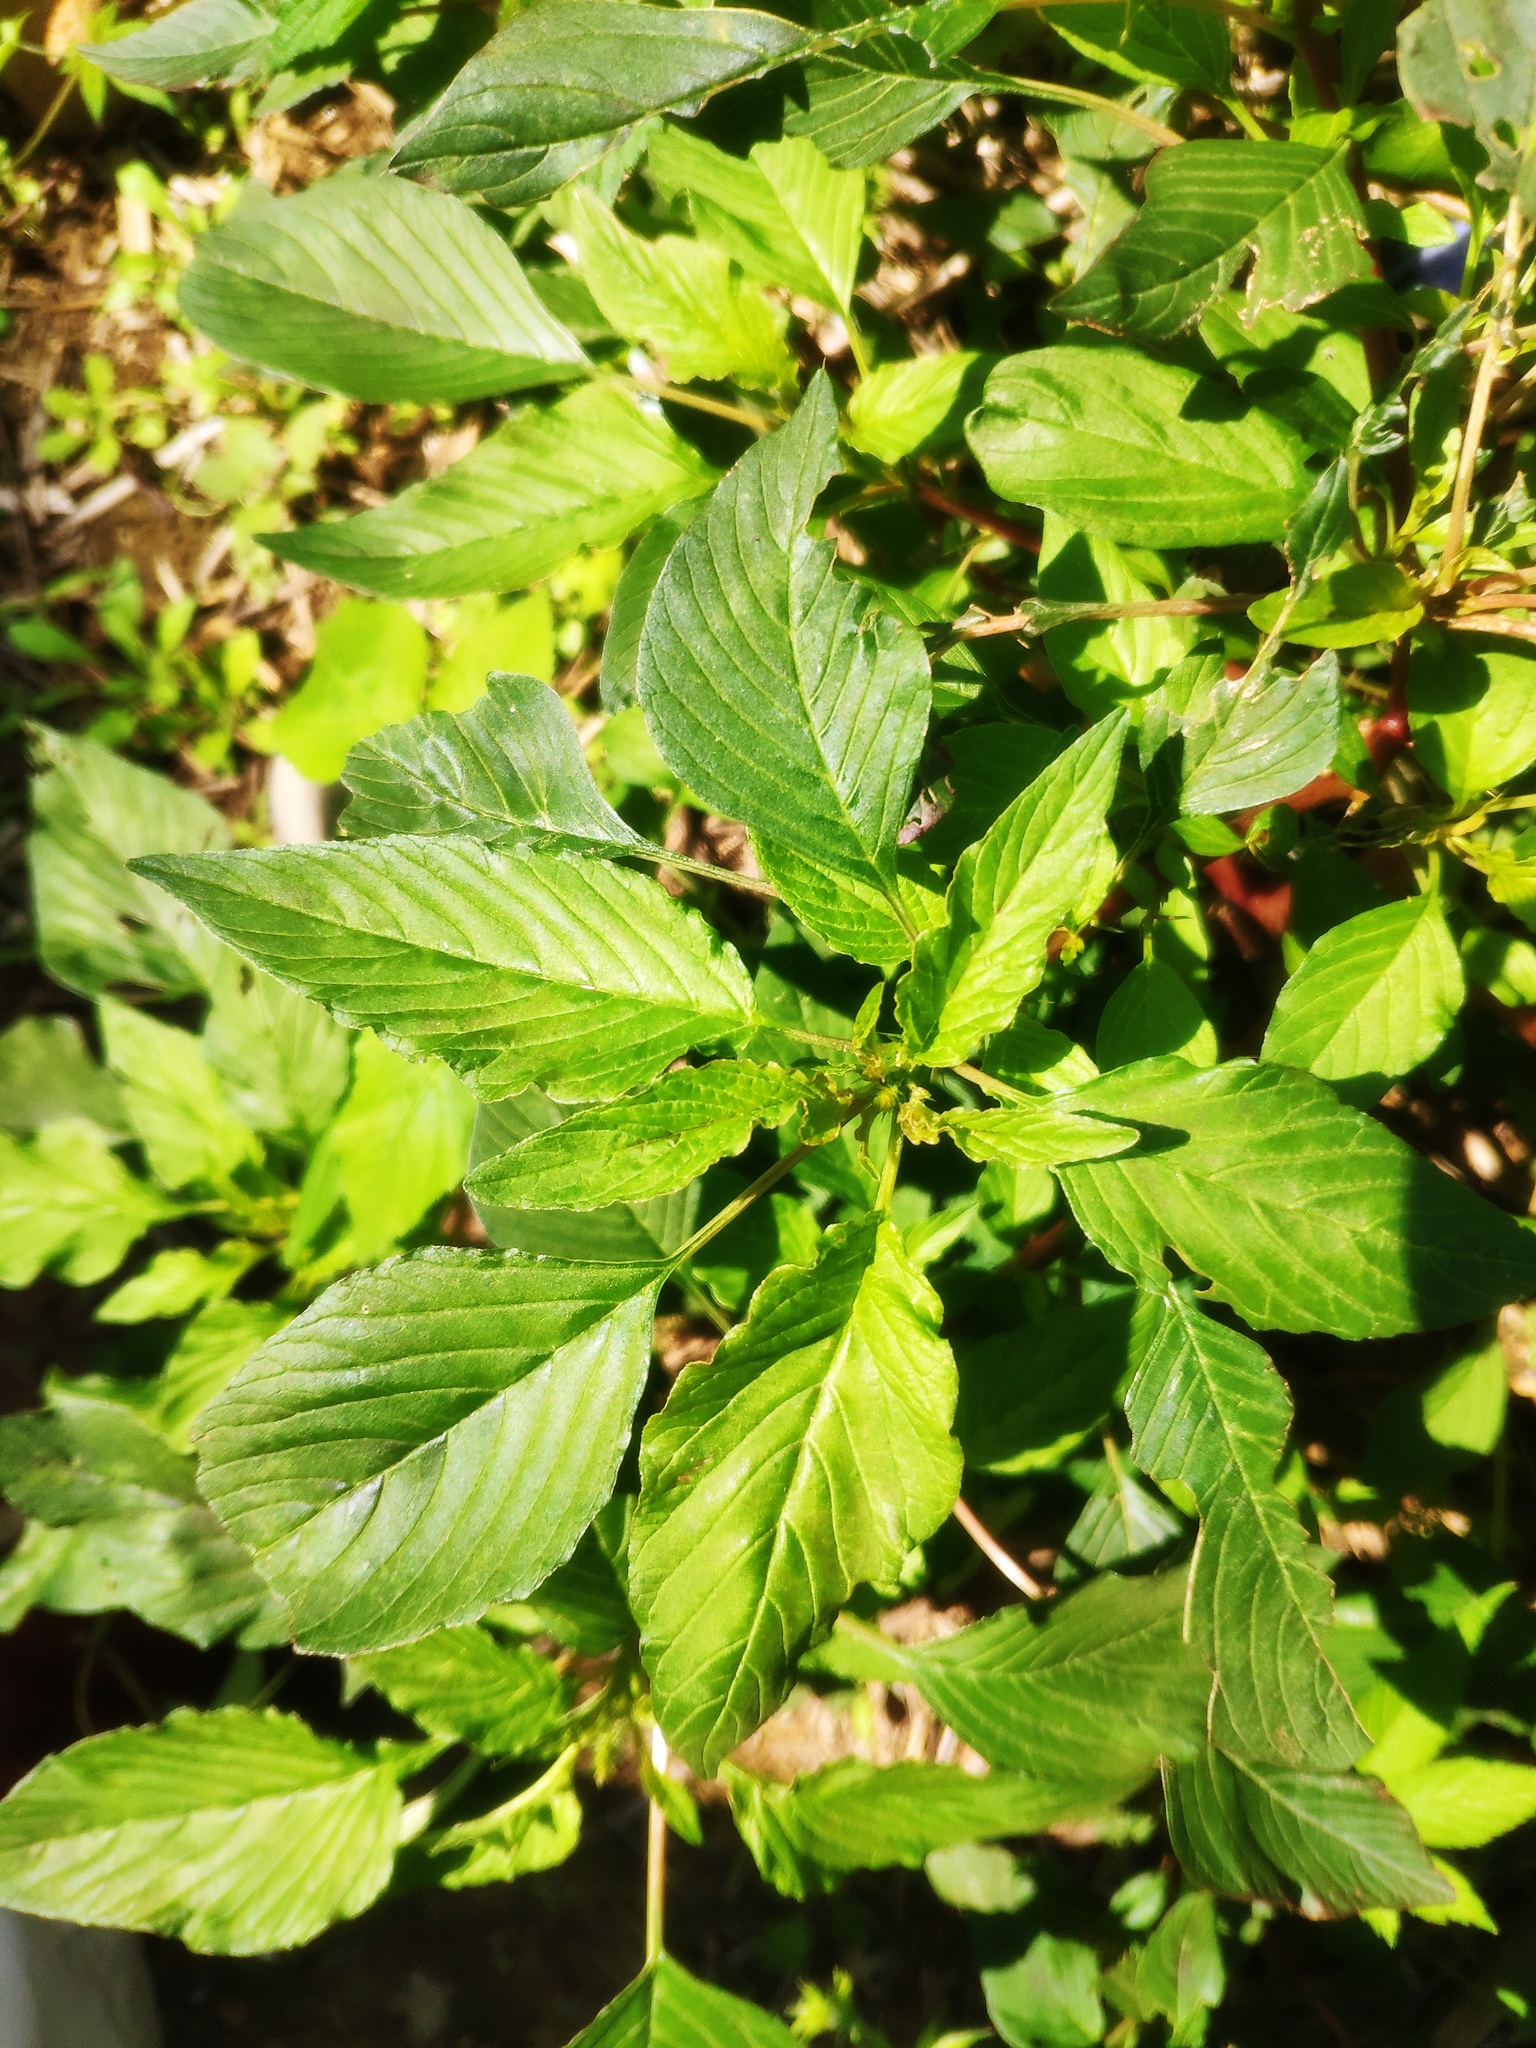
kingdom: Plantae
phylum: Tracheophyta
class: Magnoliopsida
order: Rosales
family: Cannabaceae
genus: Humulus
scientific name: Humulus scandens
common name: Japanese hop
